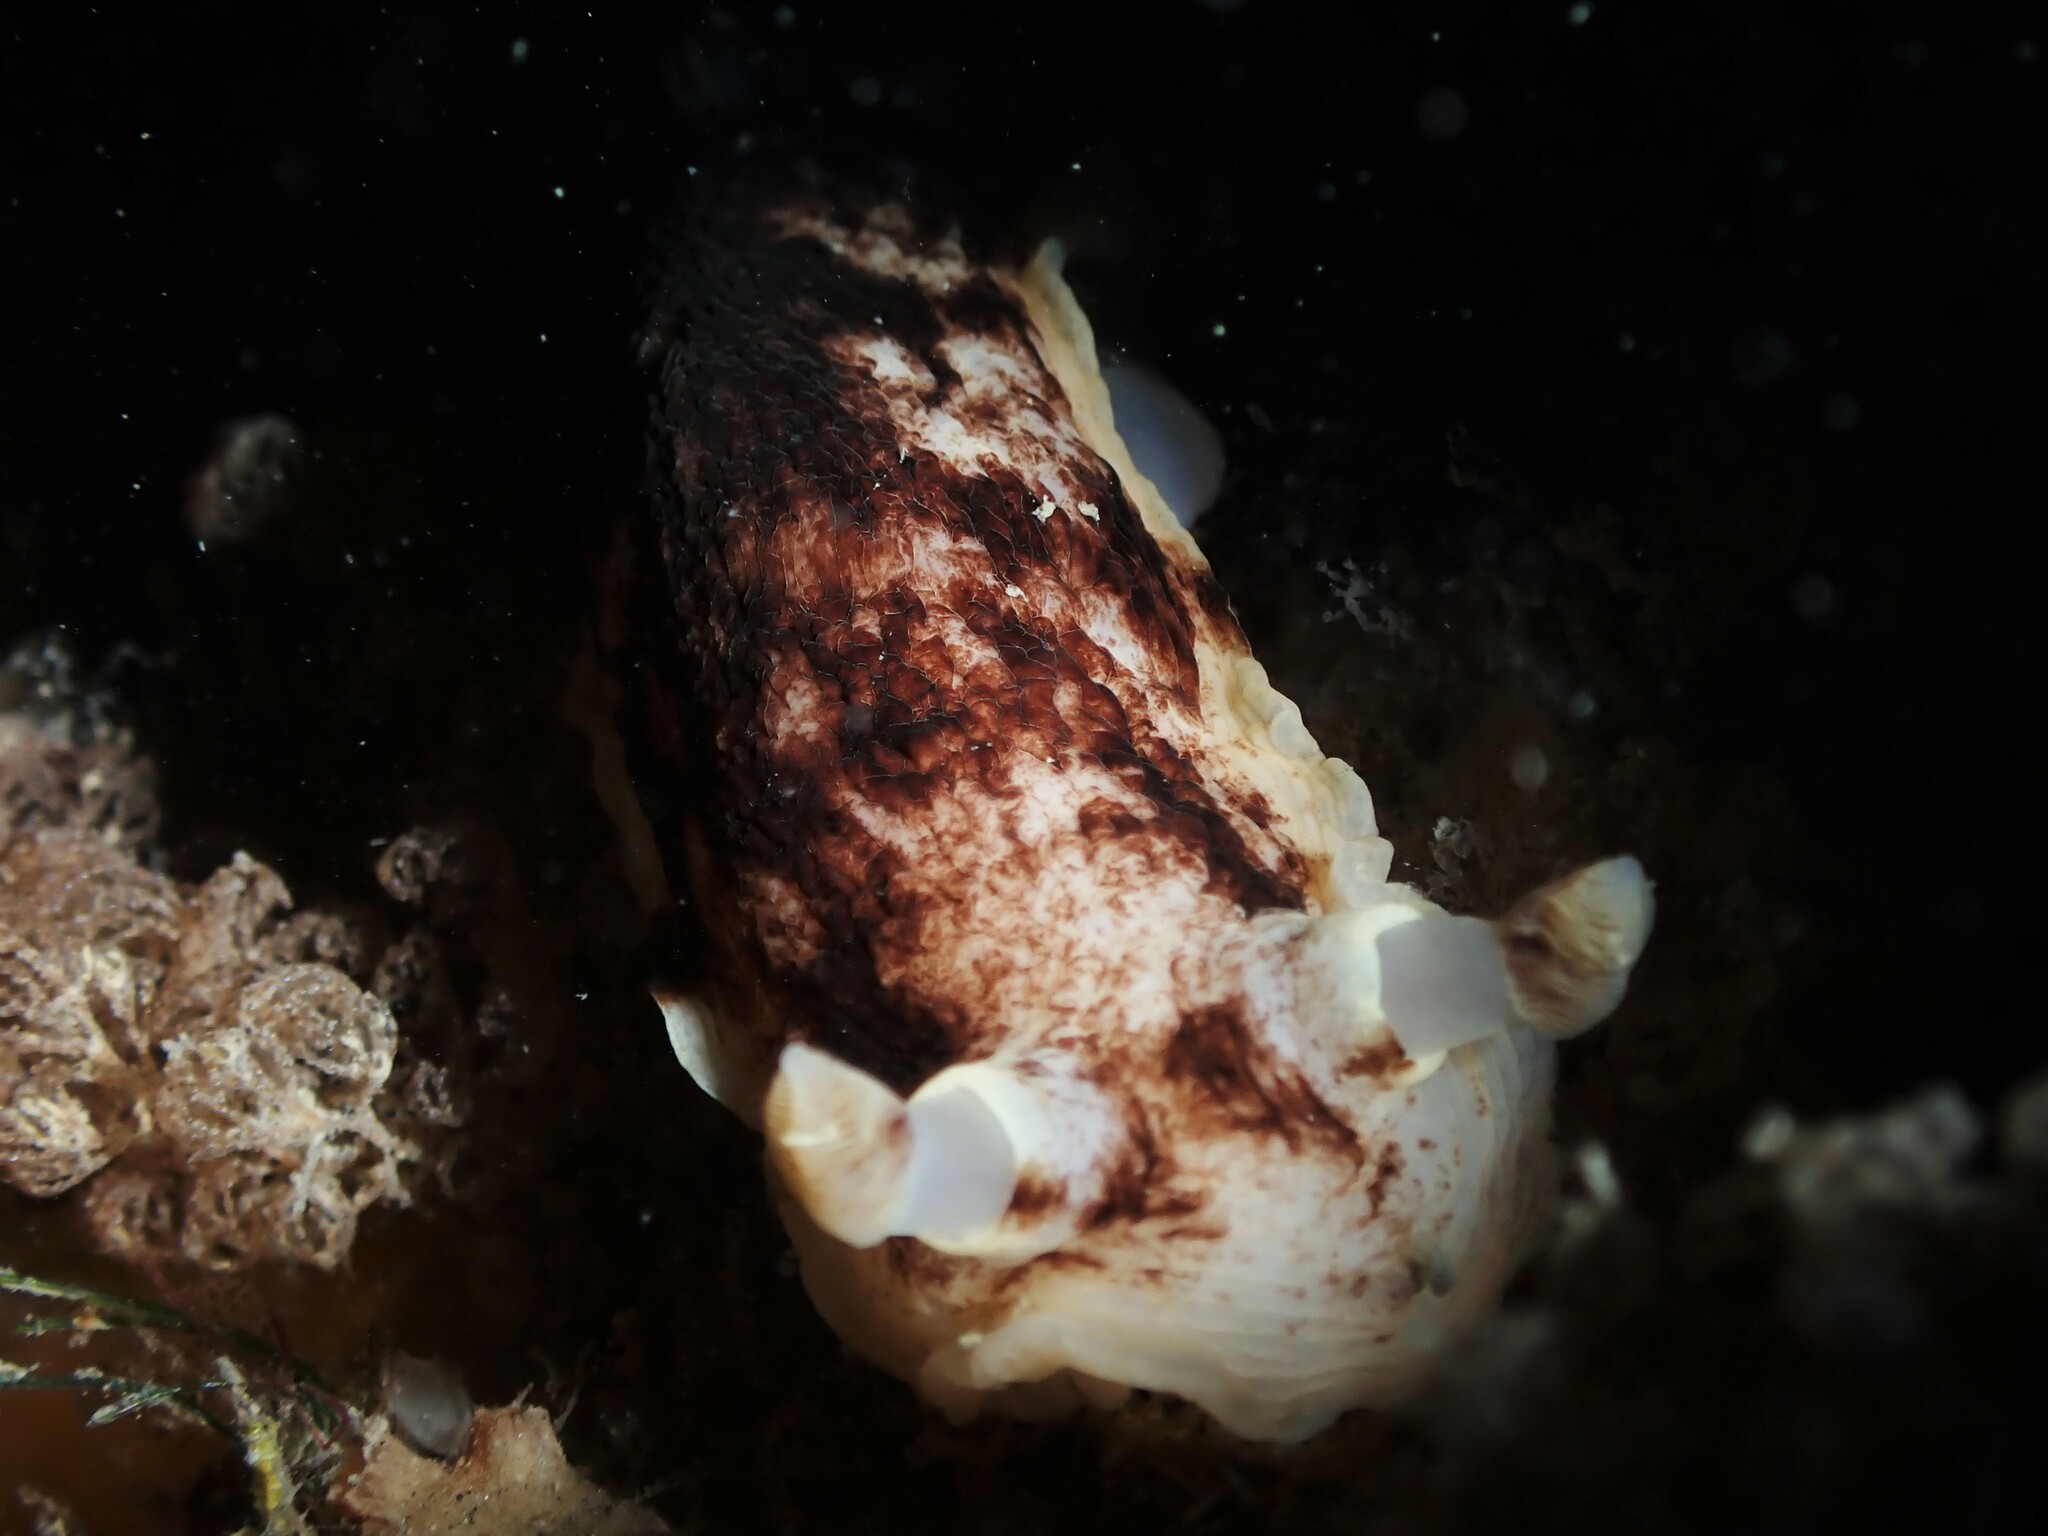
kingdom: Animalia
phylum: Mollusca
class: Gastropoda
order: Nudibranchia
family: Dorididae
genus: Aphelodoris
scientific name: Aphelodoris luctuosa
